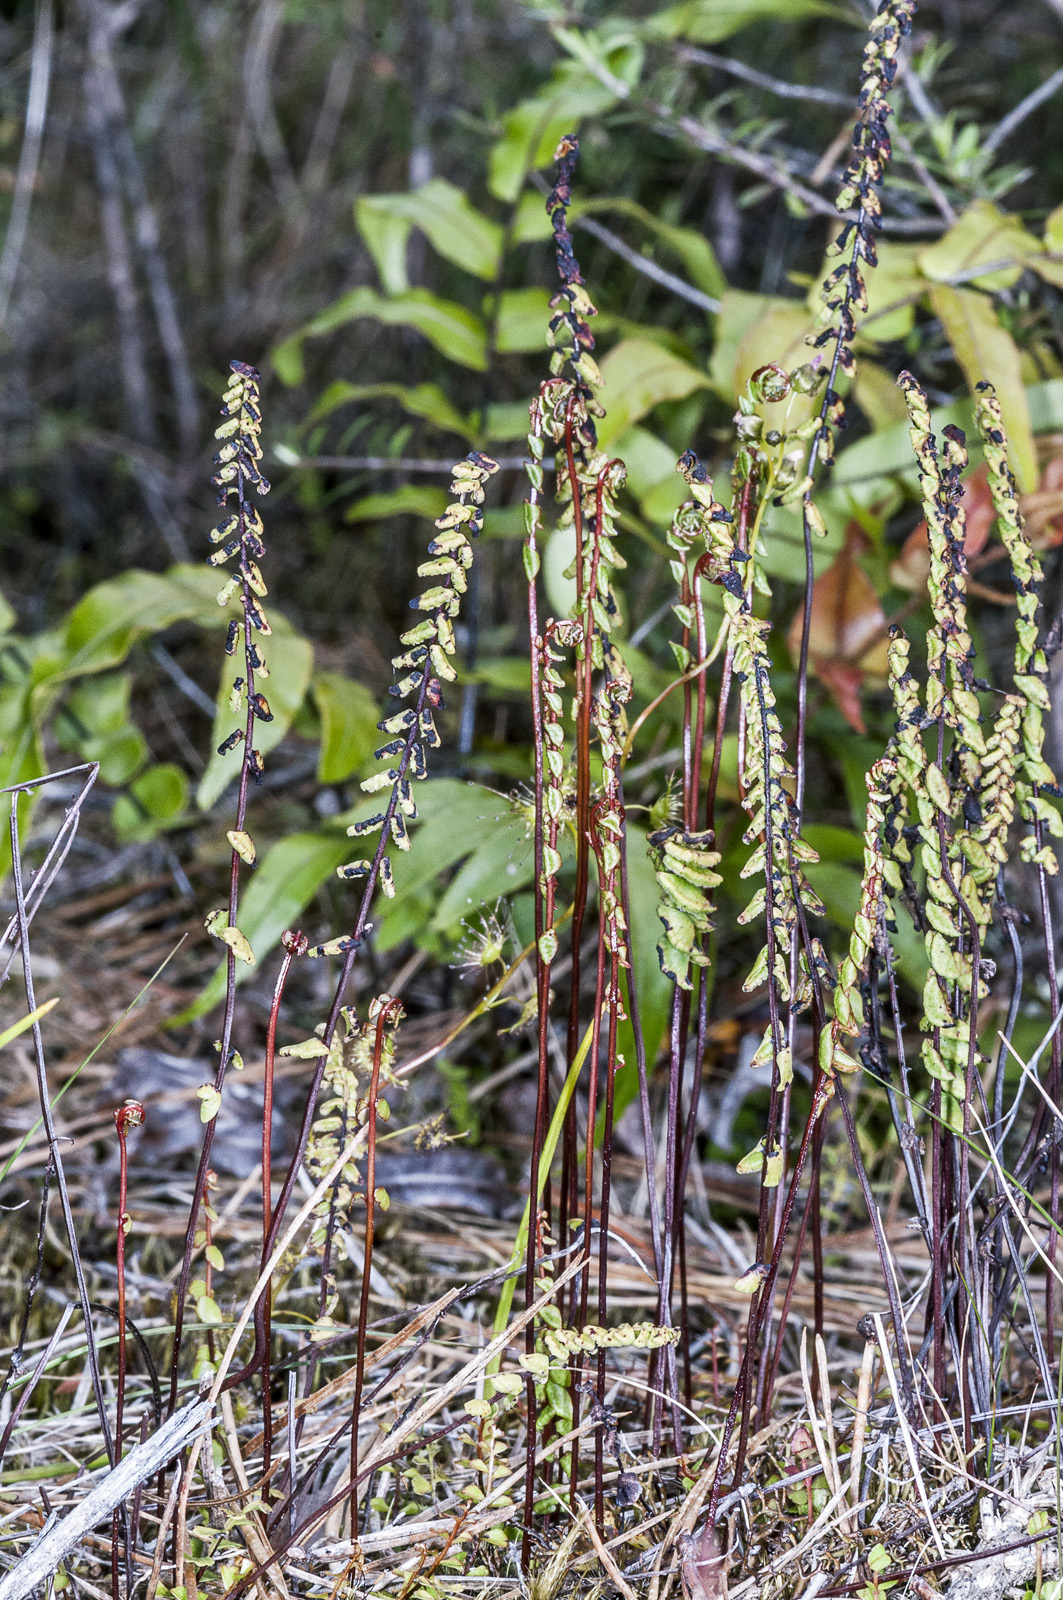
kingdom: Plantae
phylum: Tracheophyta
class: Polypodiopsida
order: Polypodiales
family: Lindsaeaceae
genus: Lindsaea
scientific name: Lindsaea linearis
